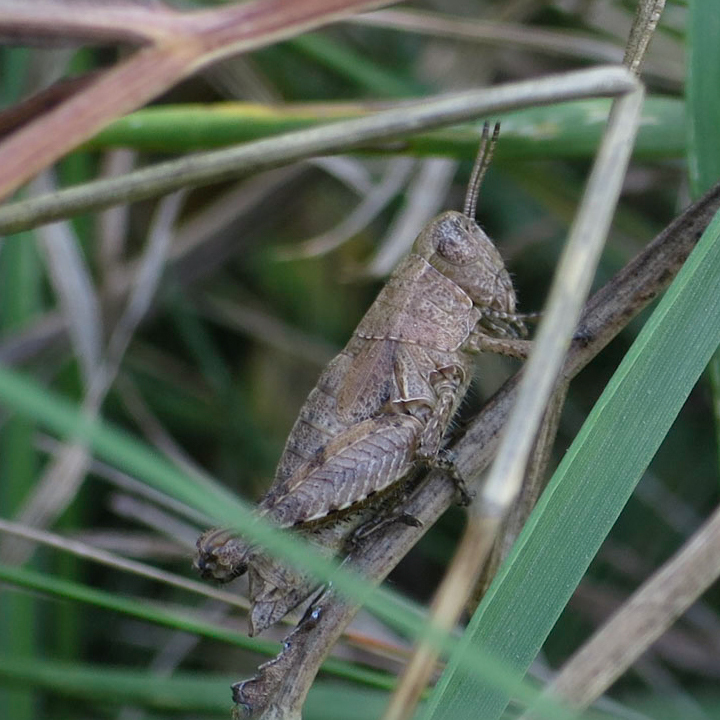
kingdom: Animalia
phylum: Arthropoda
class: Insecta
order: Orthoptera
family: Acrididae
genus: Pezotettix
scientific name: Pezotettix giornae
